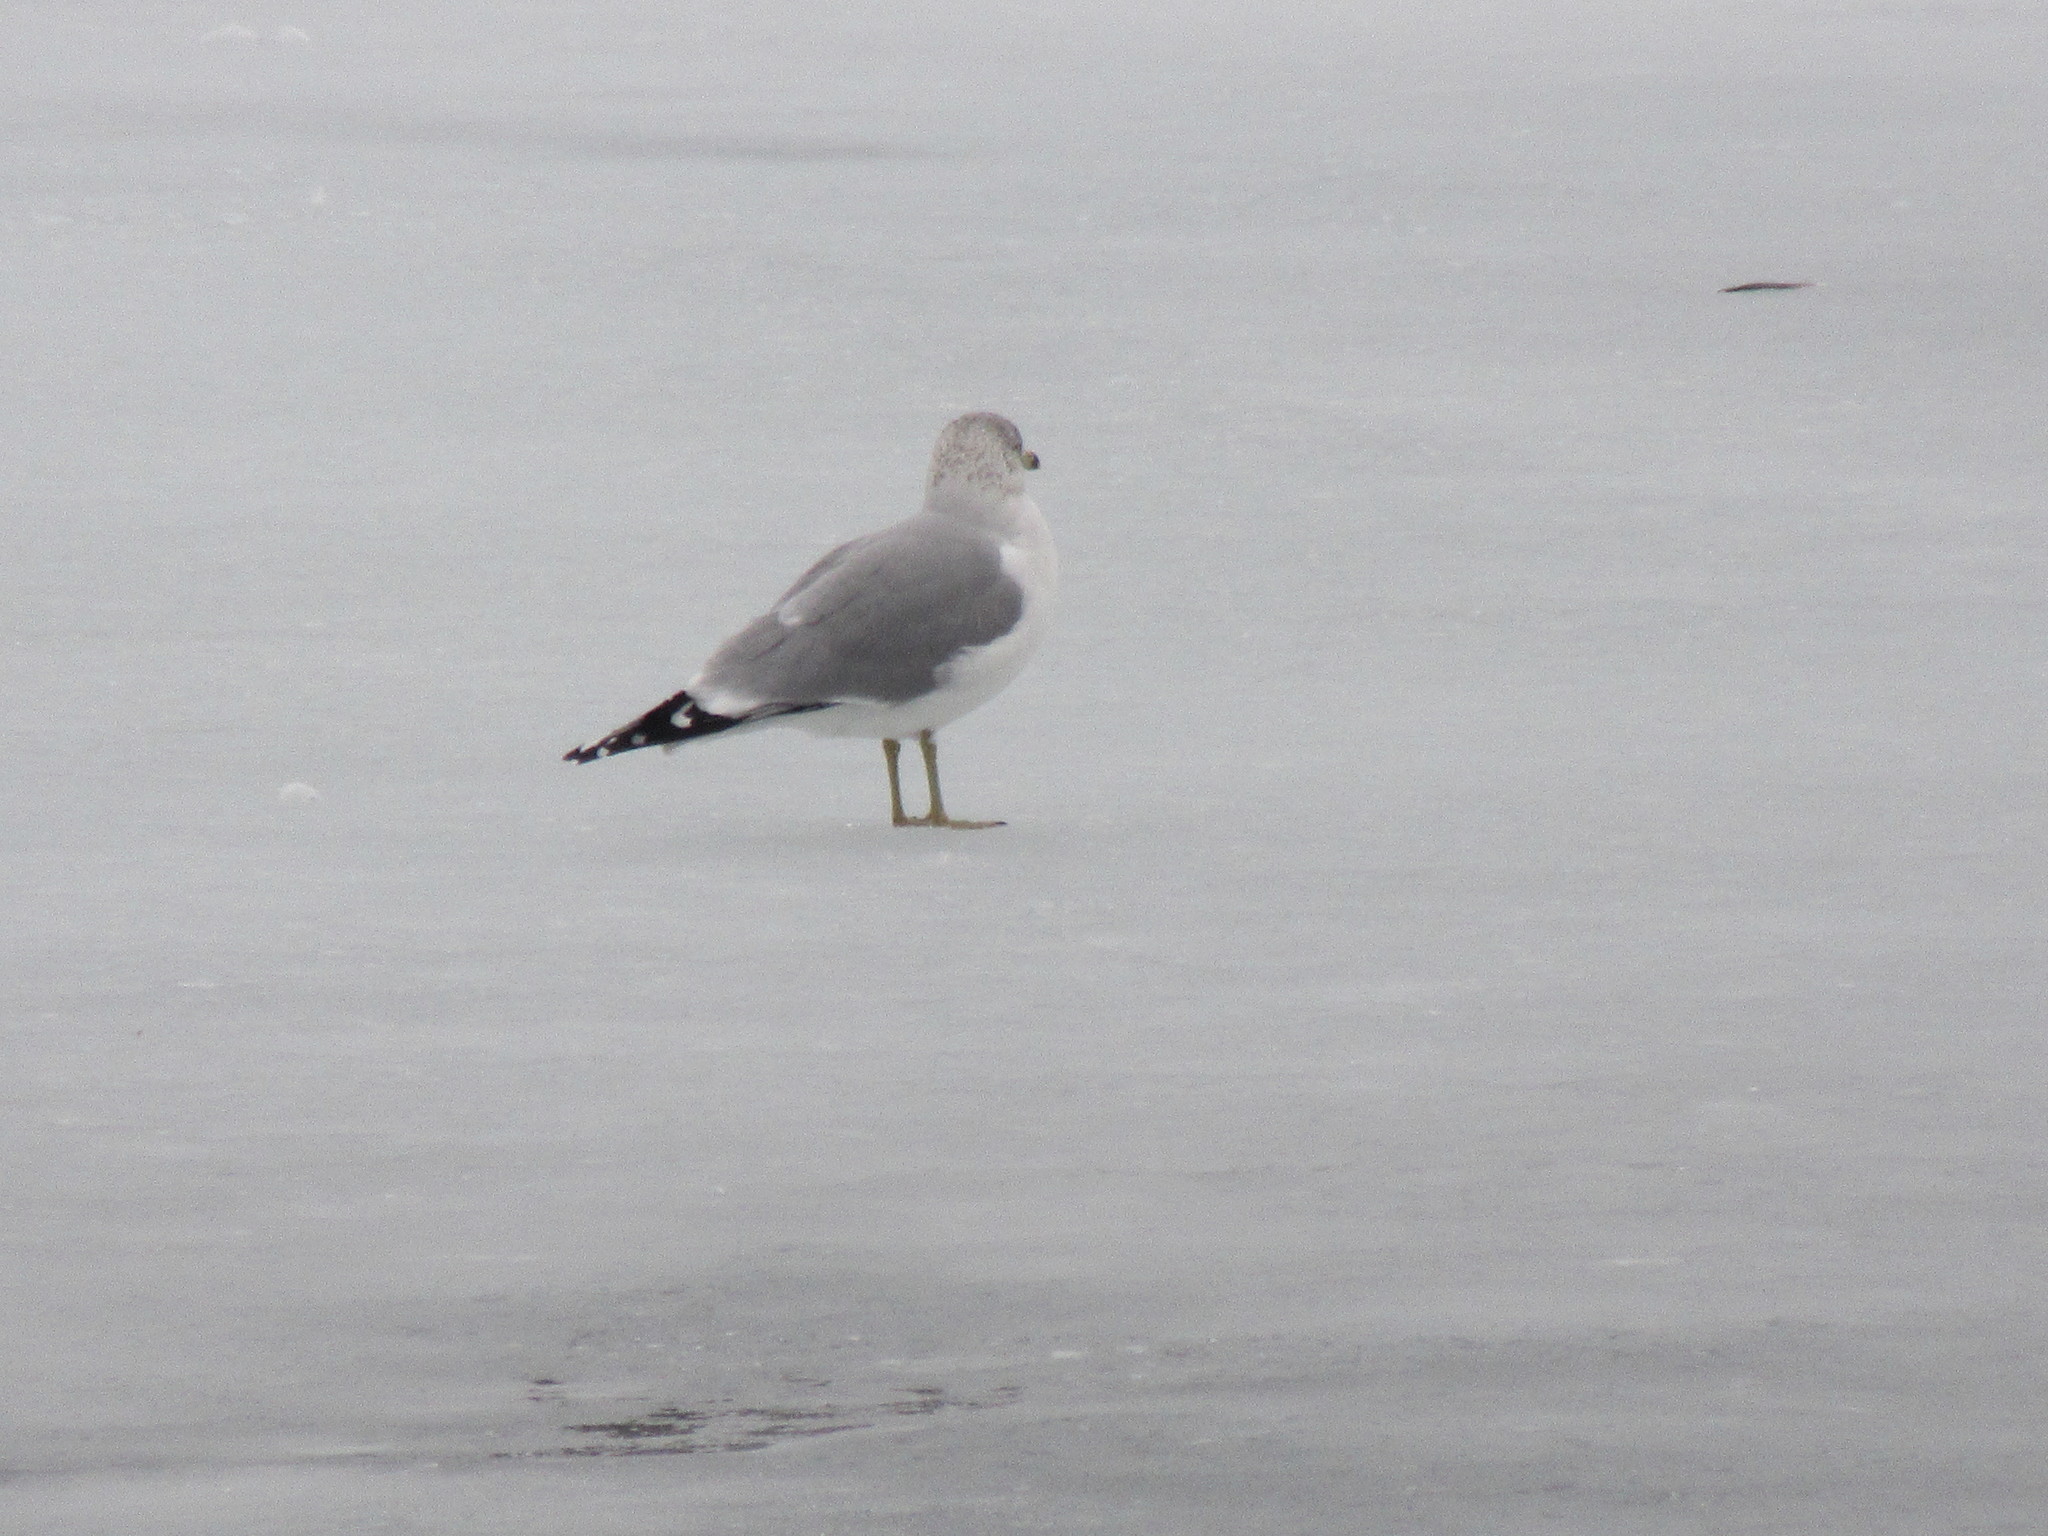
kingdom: Animalia
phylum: Chordata
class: Aves
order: Charadriiformes
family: Laridae
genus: Larus
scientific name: Larus delawarensis
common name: Ring-billed gull
